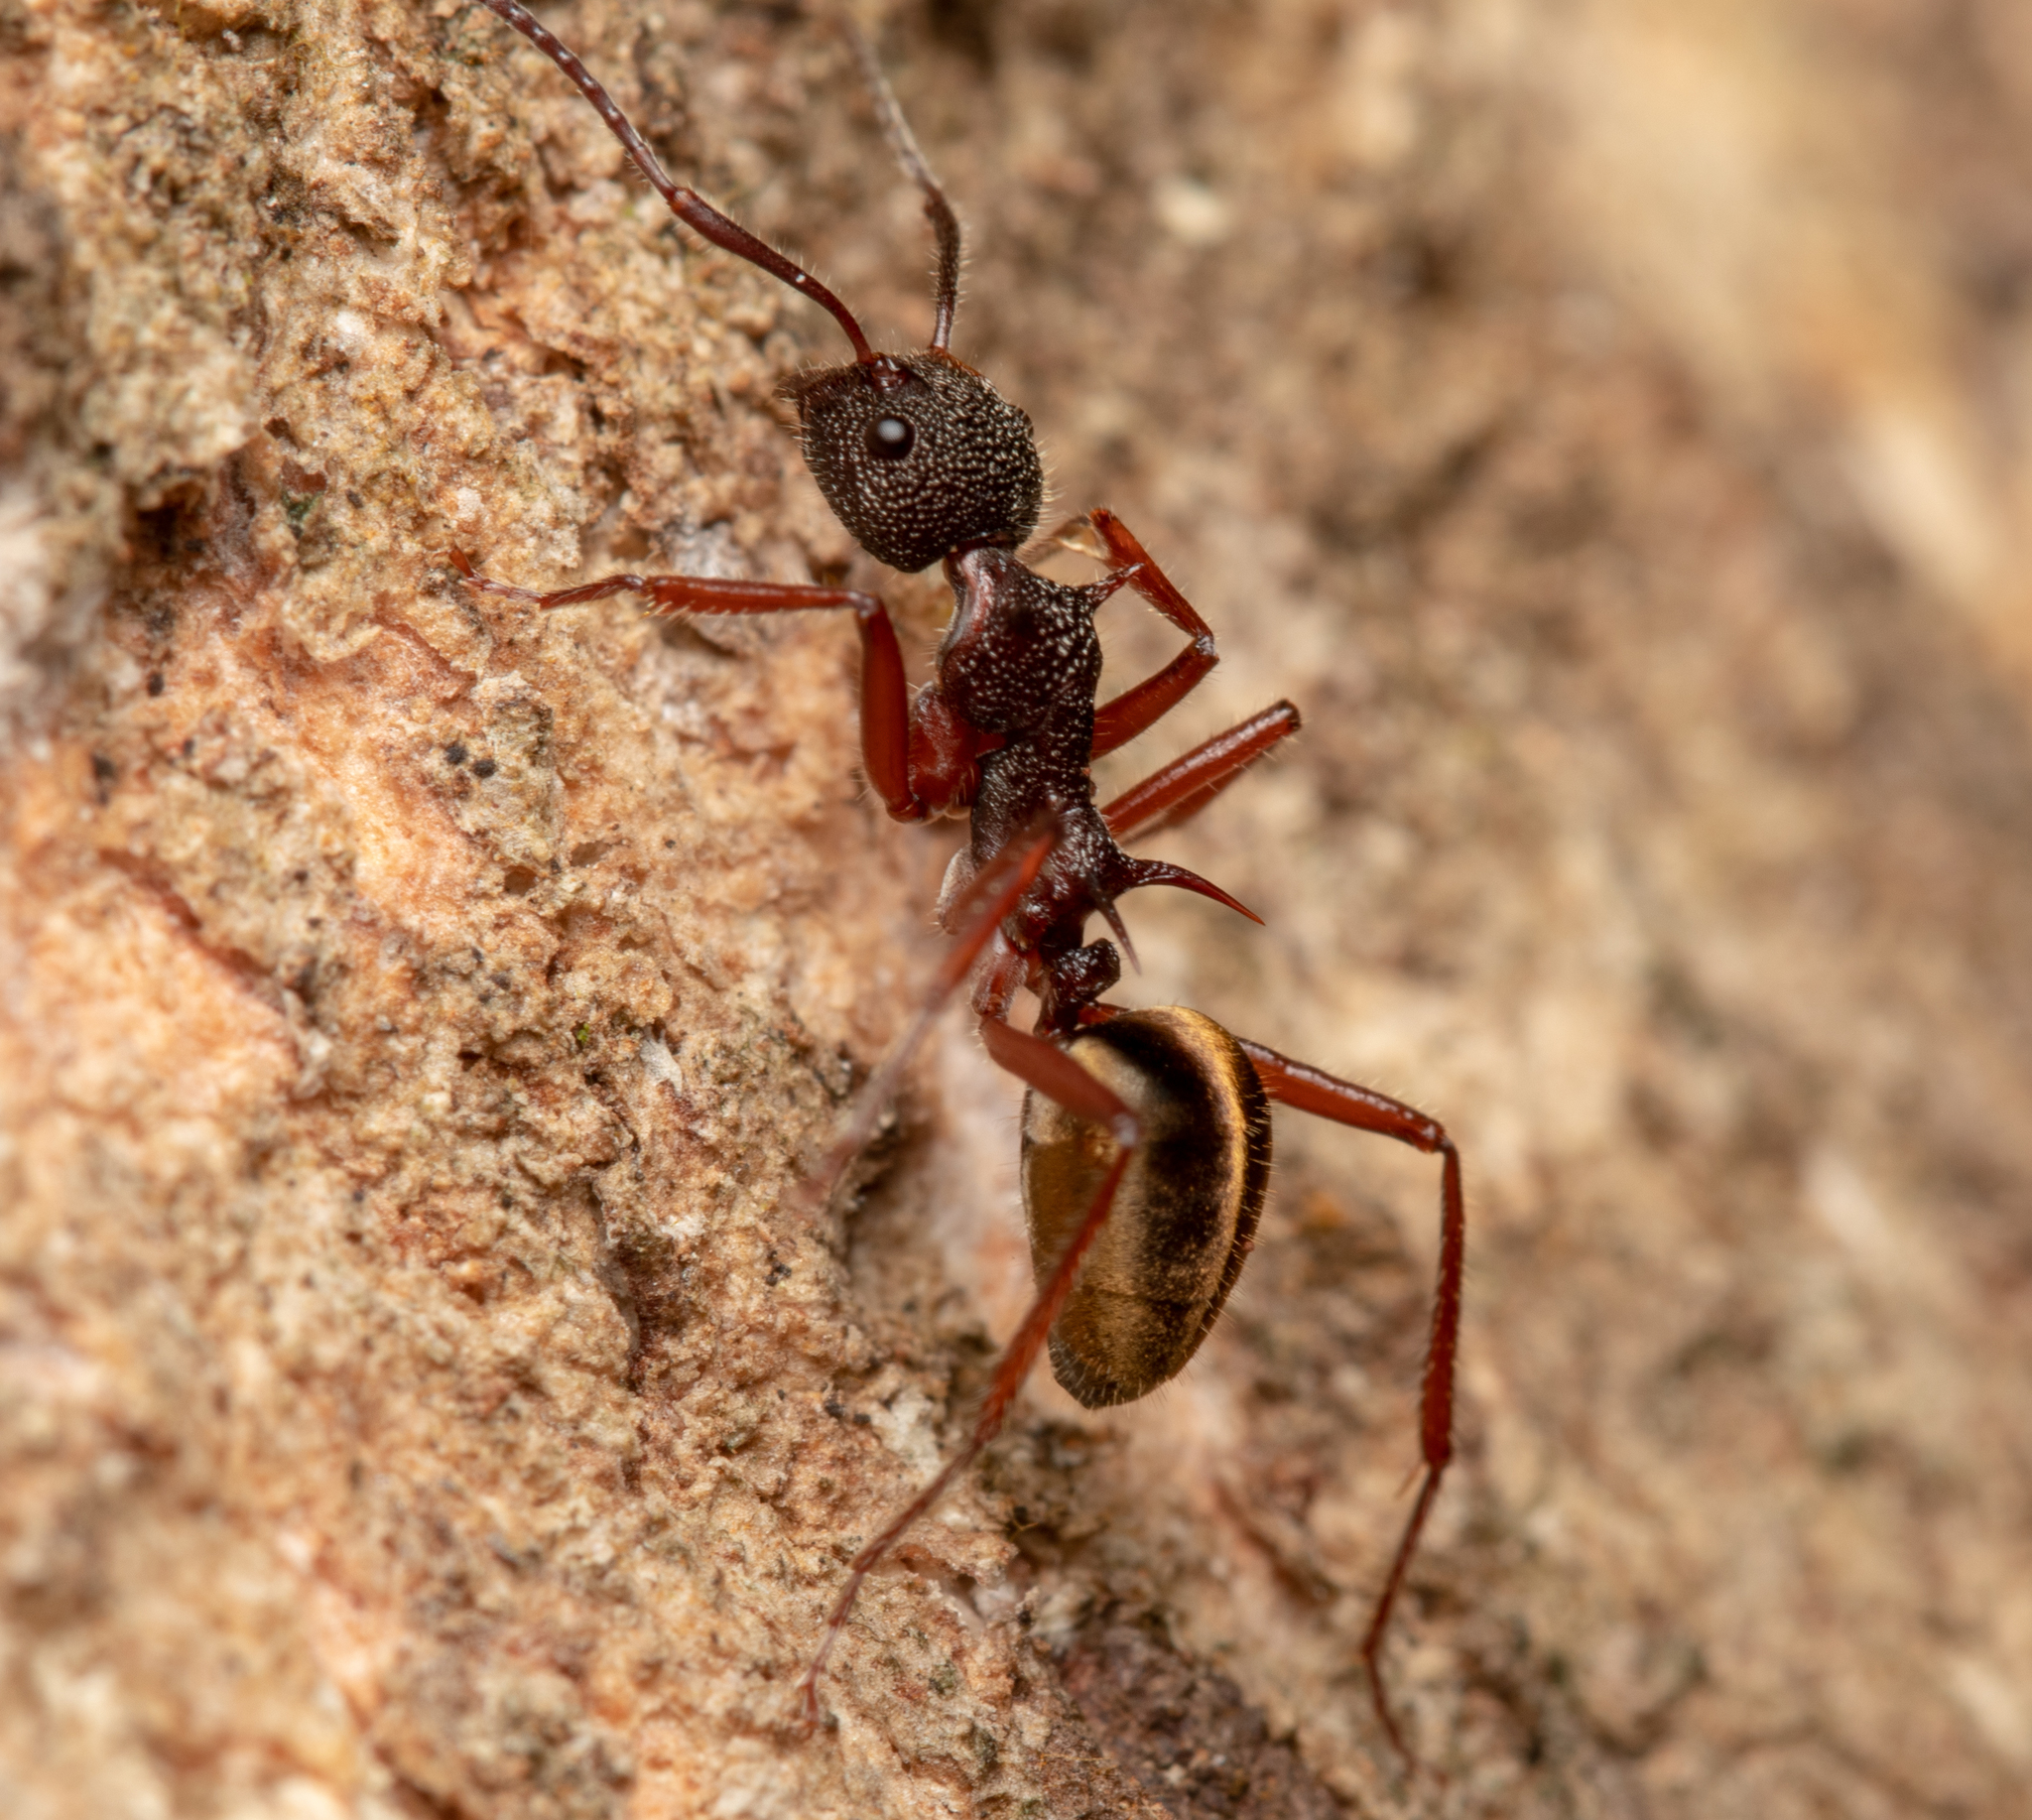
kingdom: Animalia
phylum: Arthropoda
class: Insecta
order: Hymenoptera
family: Formicidae
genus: Dolichoderus
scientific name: Dolichoderus extensispinus
